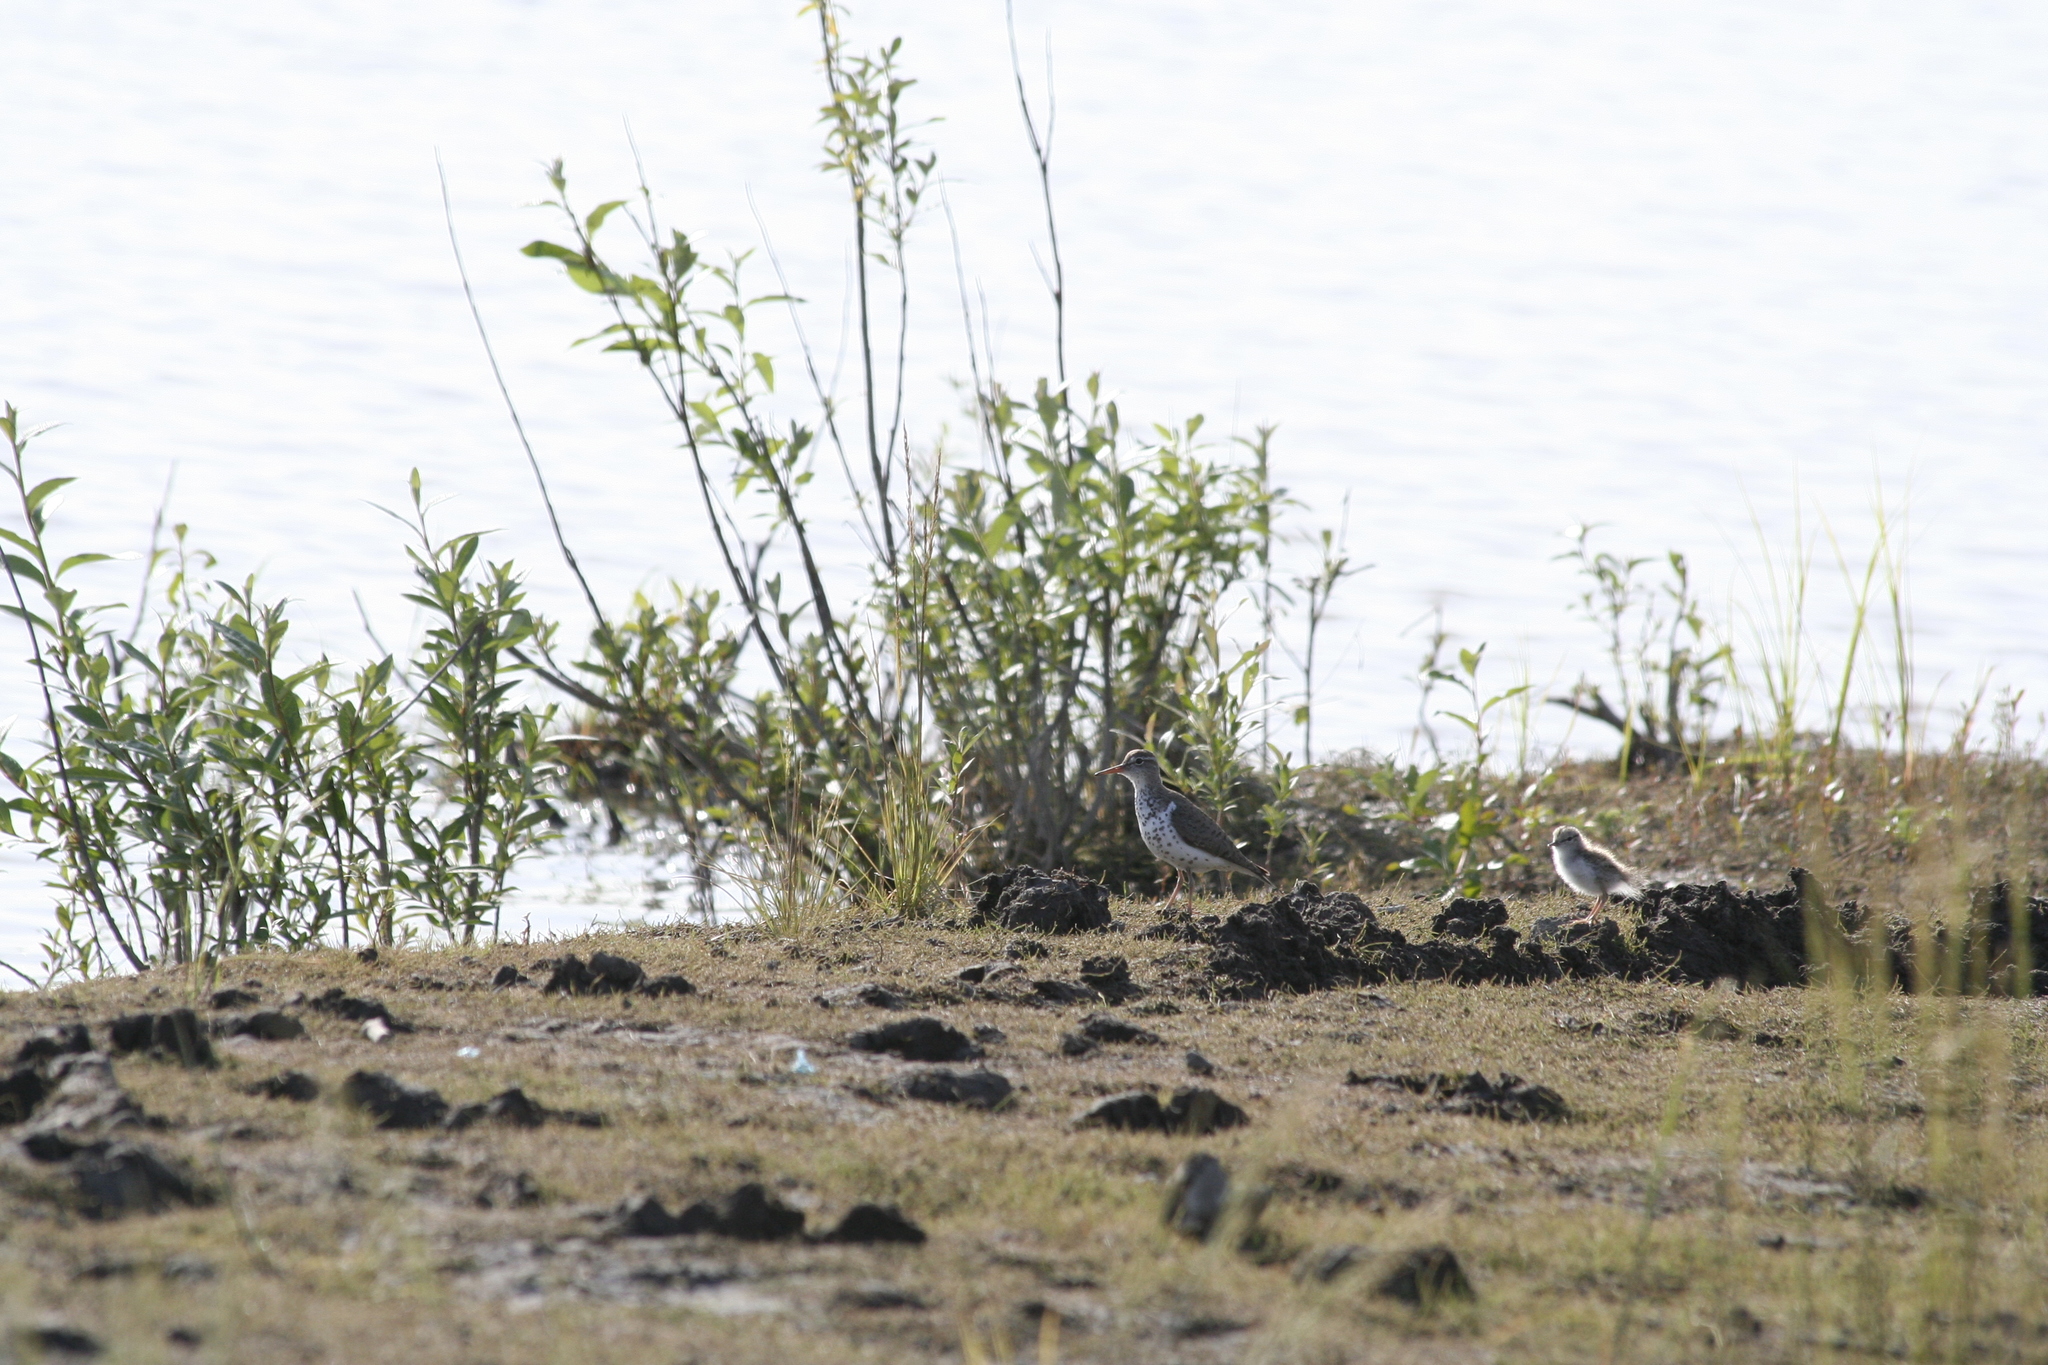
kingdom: Animalia
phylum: Chordata
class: Aves
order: Charadriiformes
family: Scolopacidae
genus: Actitis
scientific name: Actitis macularius
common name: Spotted sandpiper
